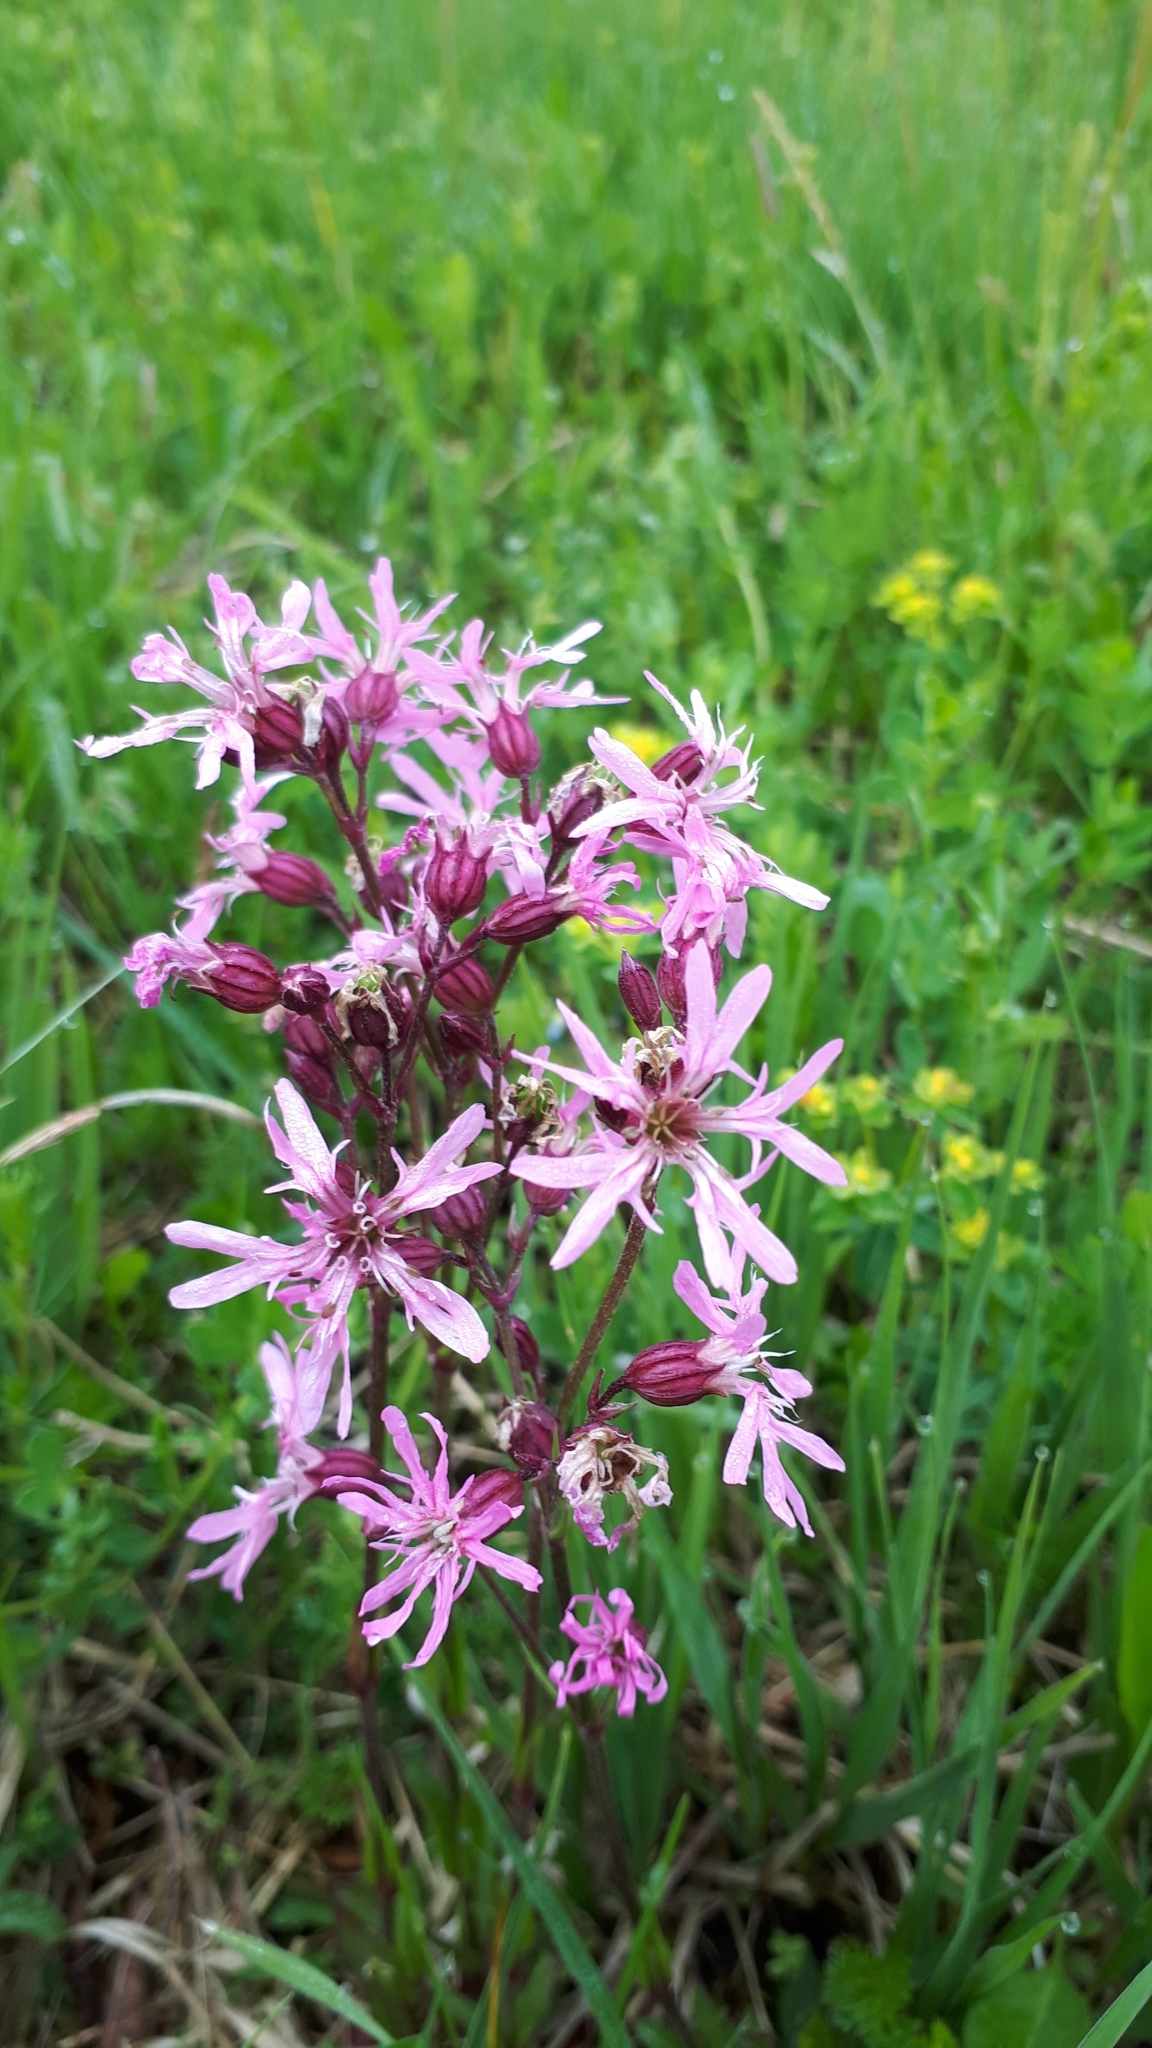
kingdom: Plantae
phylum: Tracheophyta
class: Magnoliopsida
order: Caryophyllales
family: Caryophyllaceae
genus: Silene
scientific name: Silene flos-cuculi
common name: Ragged-robin
